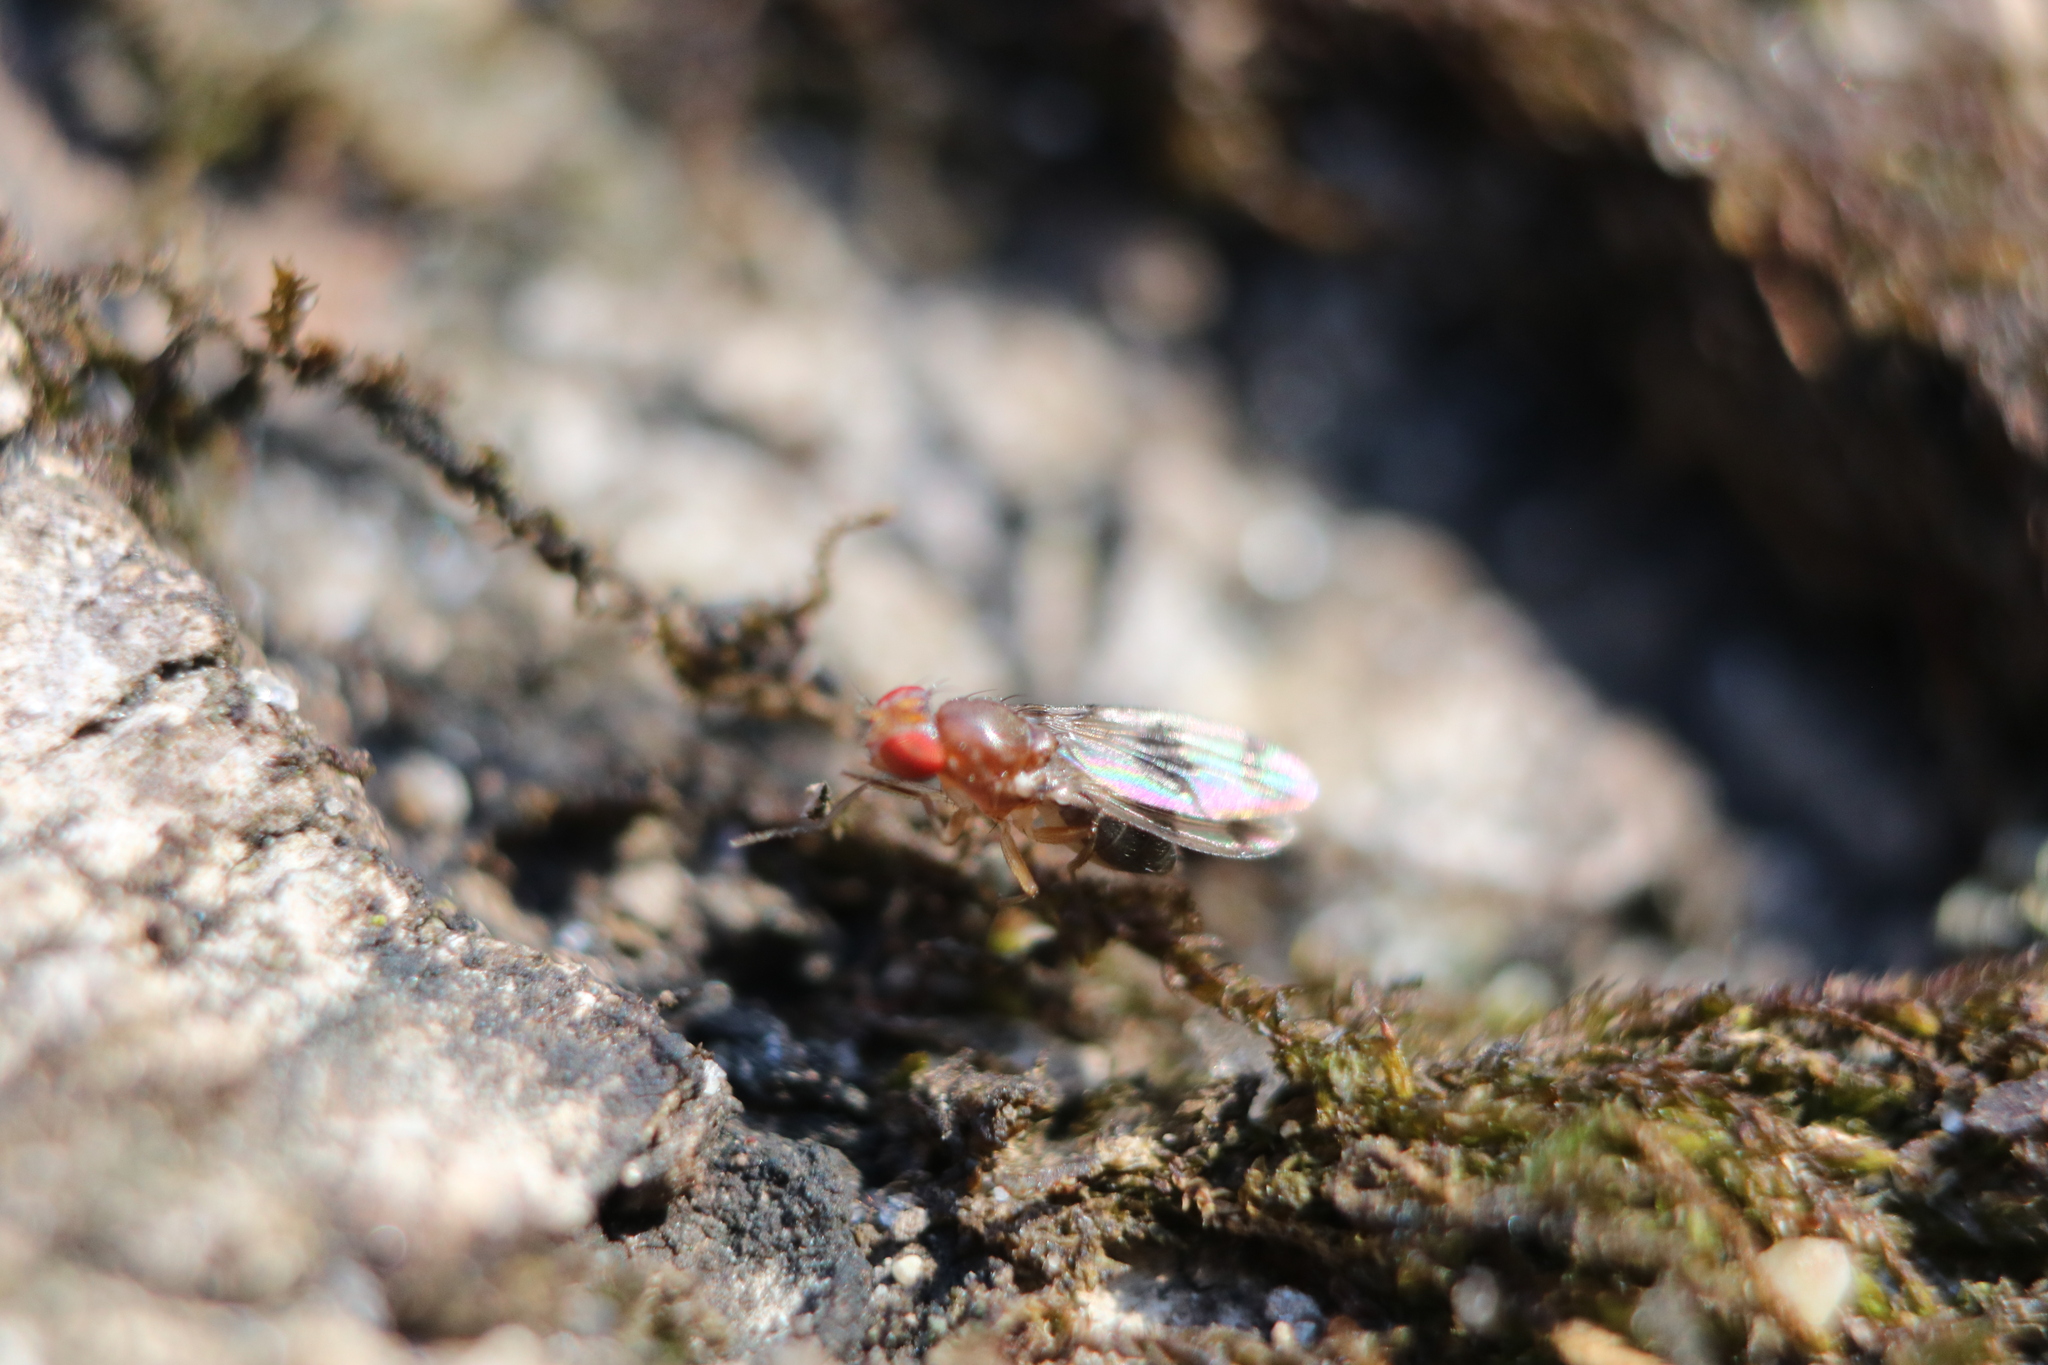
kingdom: Animalia
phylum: Arthropoda
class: Insecta
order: Diptera
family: Drosophilidae
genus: Chymomyza
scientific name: Chymomyza amoena
